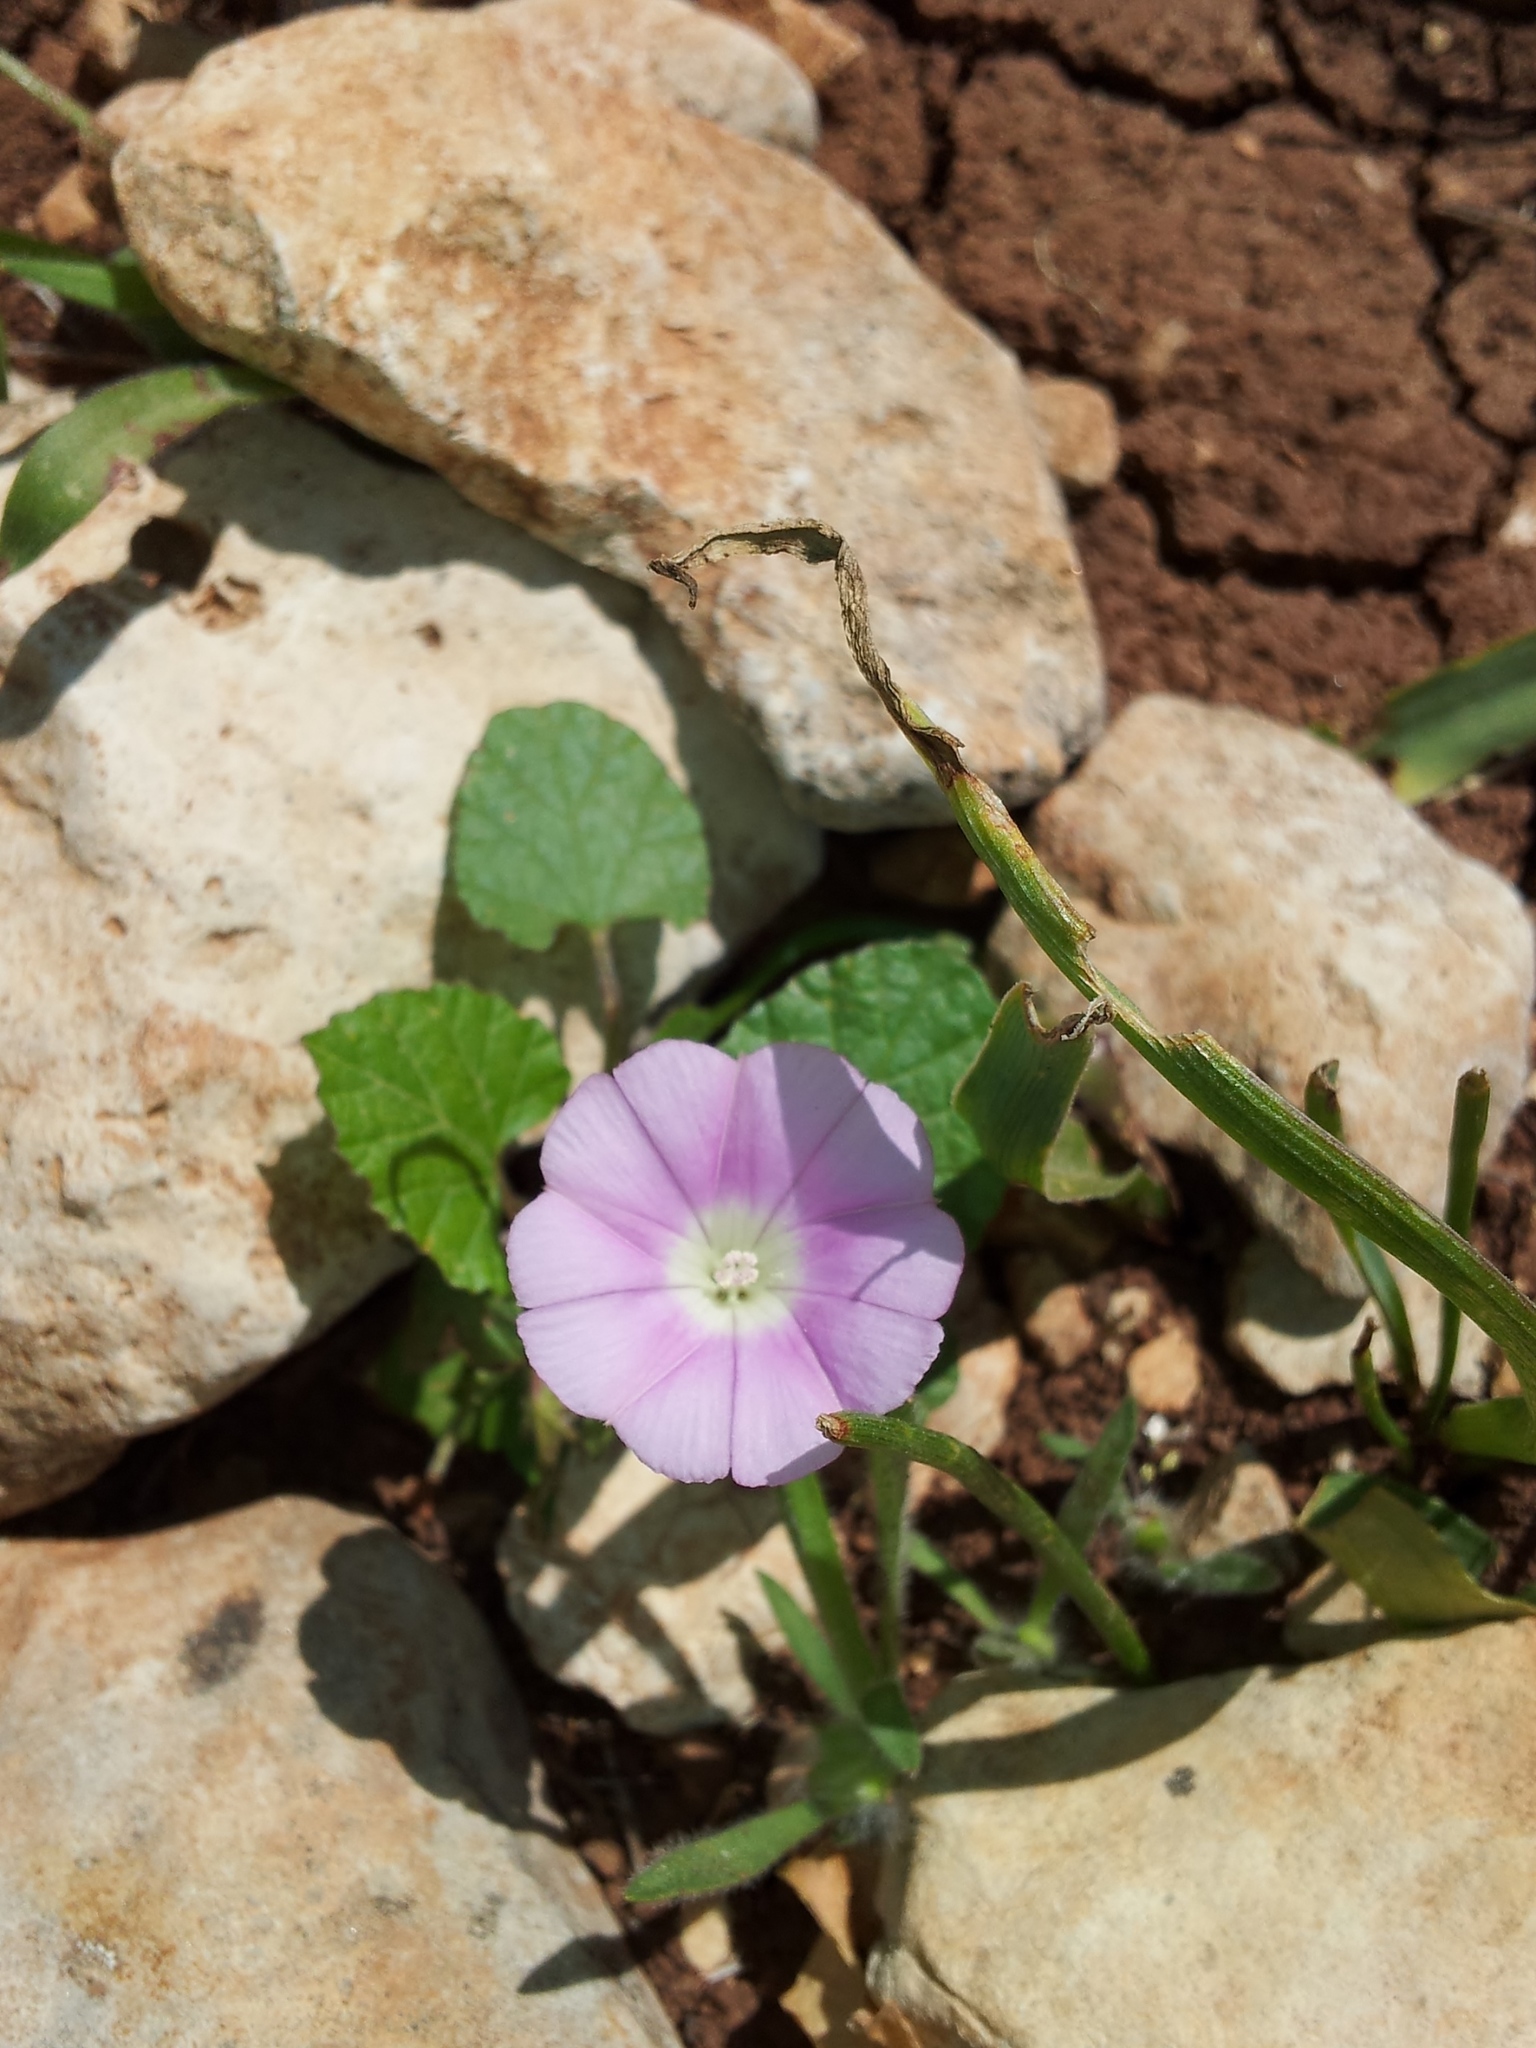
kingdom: Plantae
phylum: Tracheophyta
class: Magnoliopsida
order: Solanales
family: Convolvulaceae
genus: Convolvulus
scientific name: Convolvulus coelesyriacus
